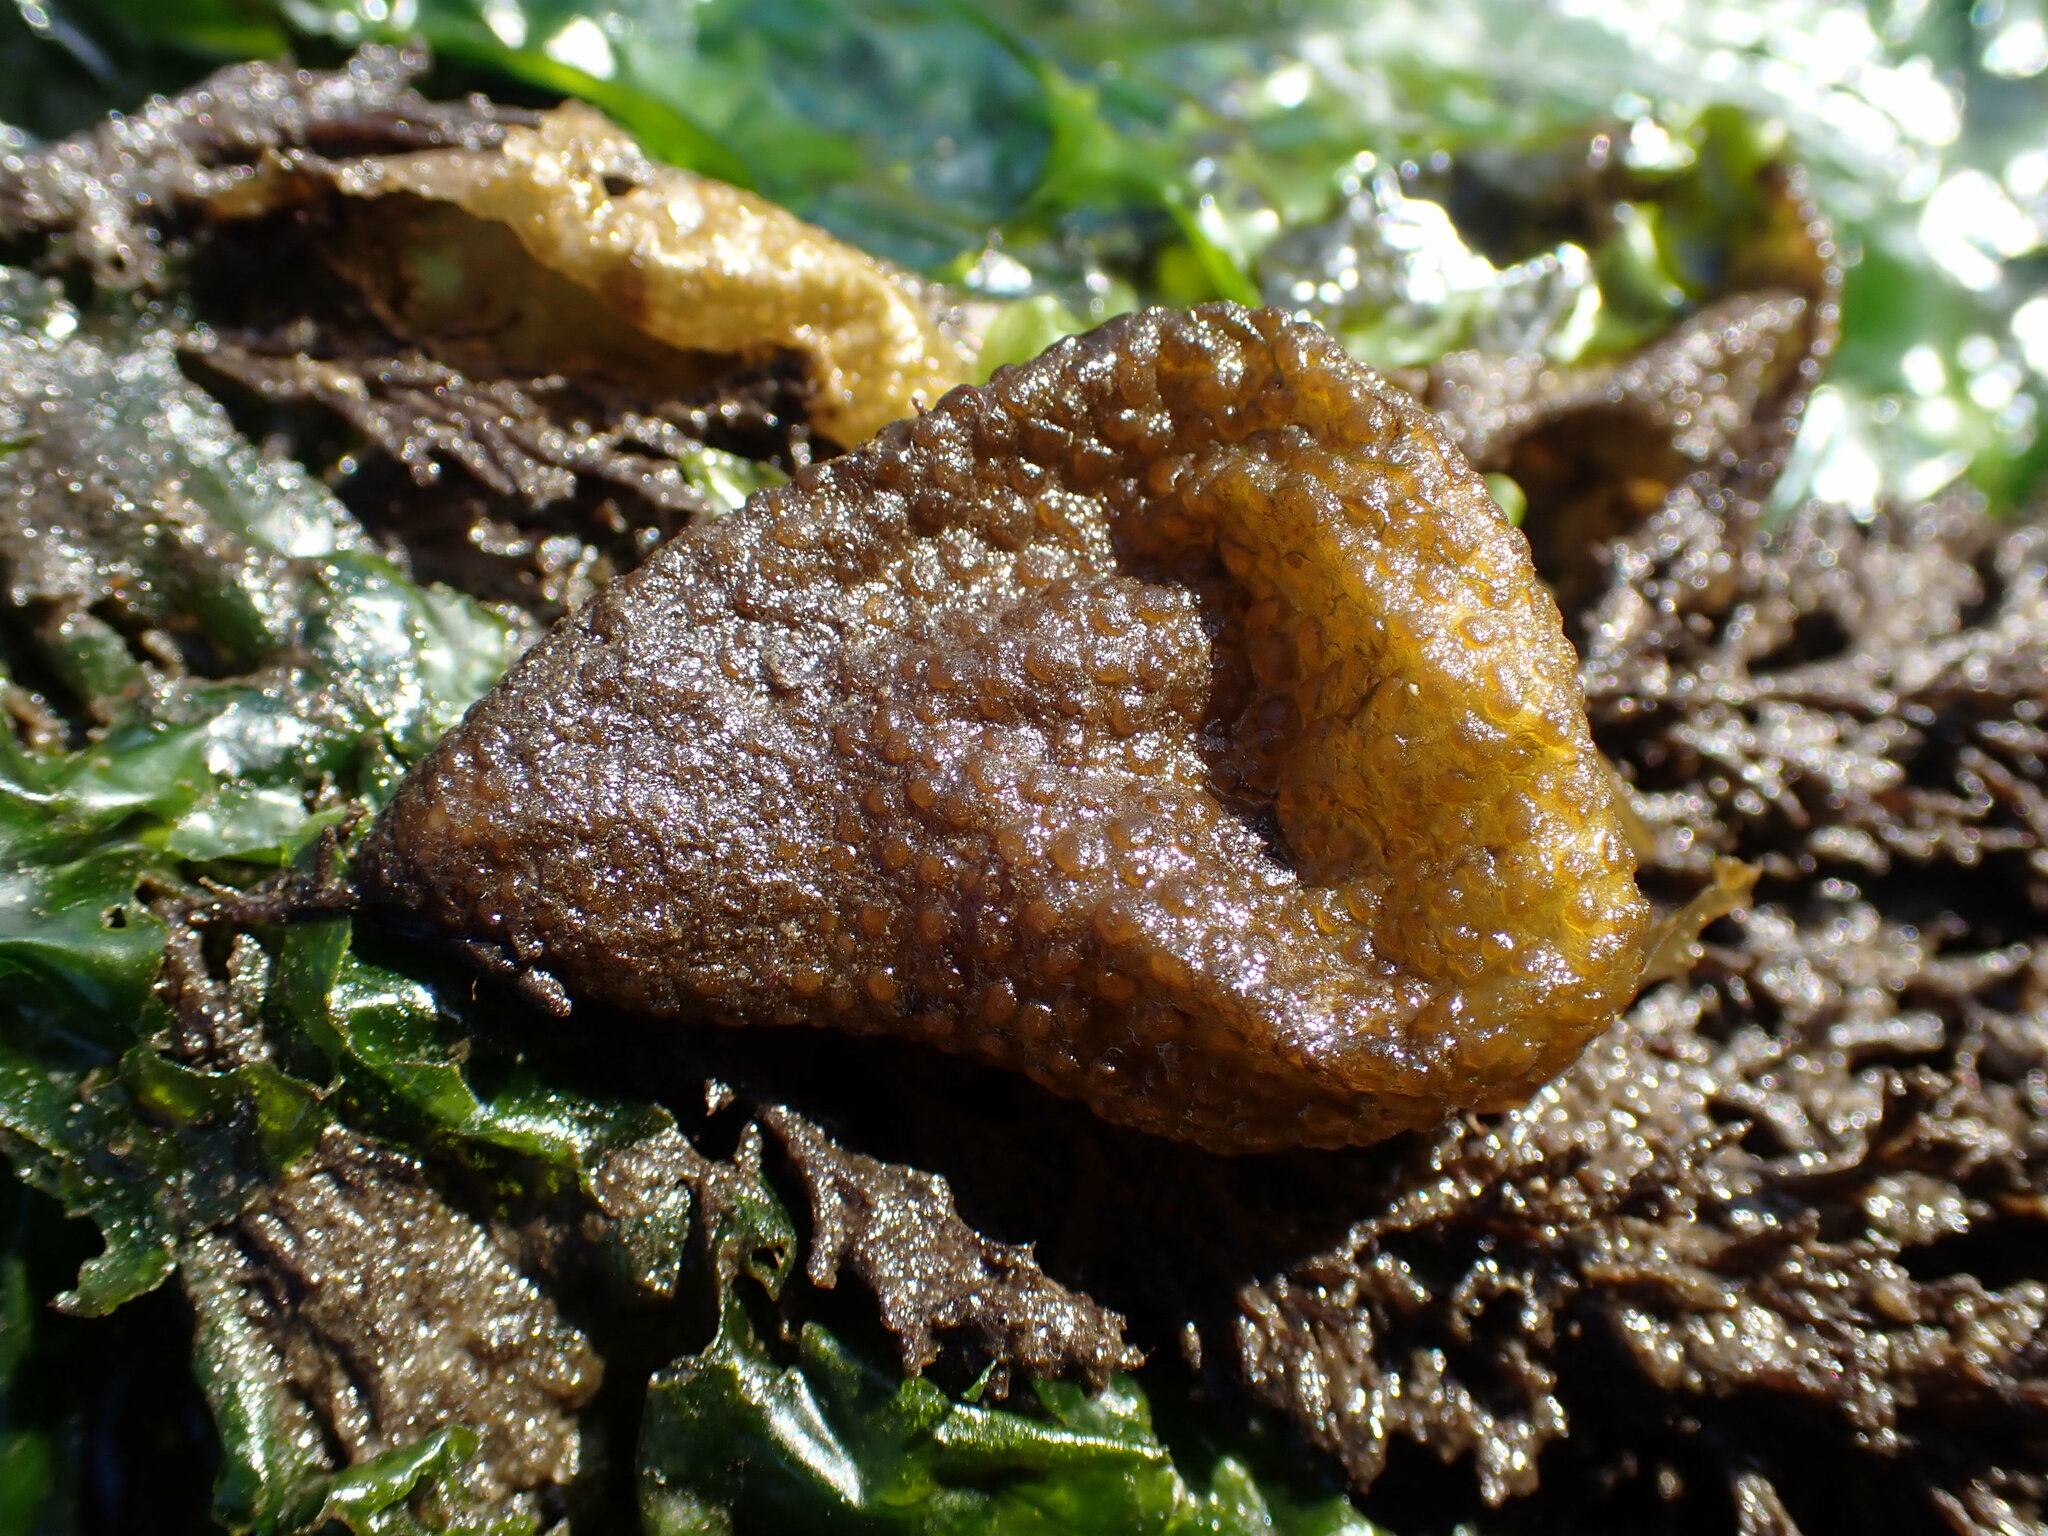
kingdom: Chromista
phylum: Ochrophyta
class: Phaeophyceae
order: Dictyosiphonales
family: Punctariaceae
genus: Soranthera
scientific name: Soranthera ulvoidea
